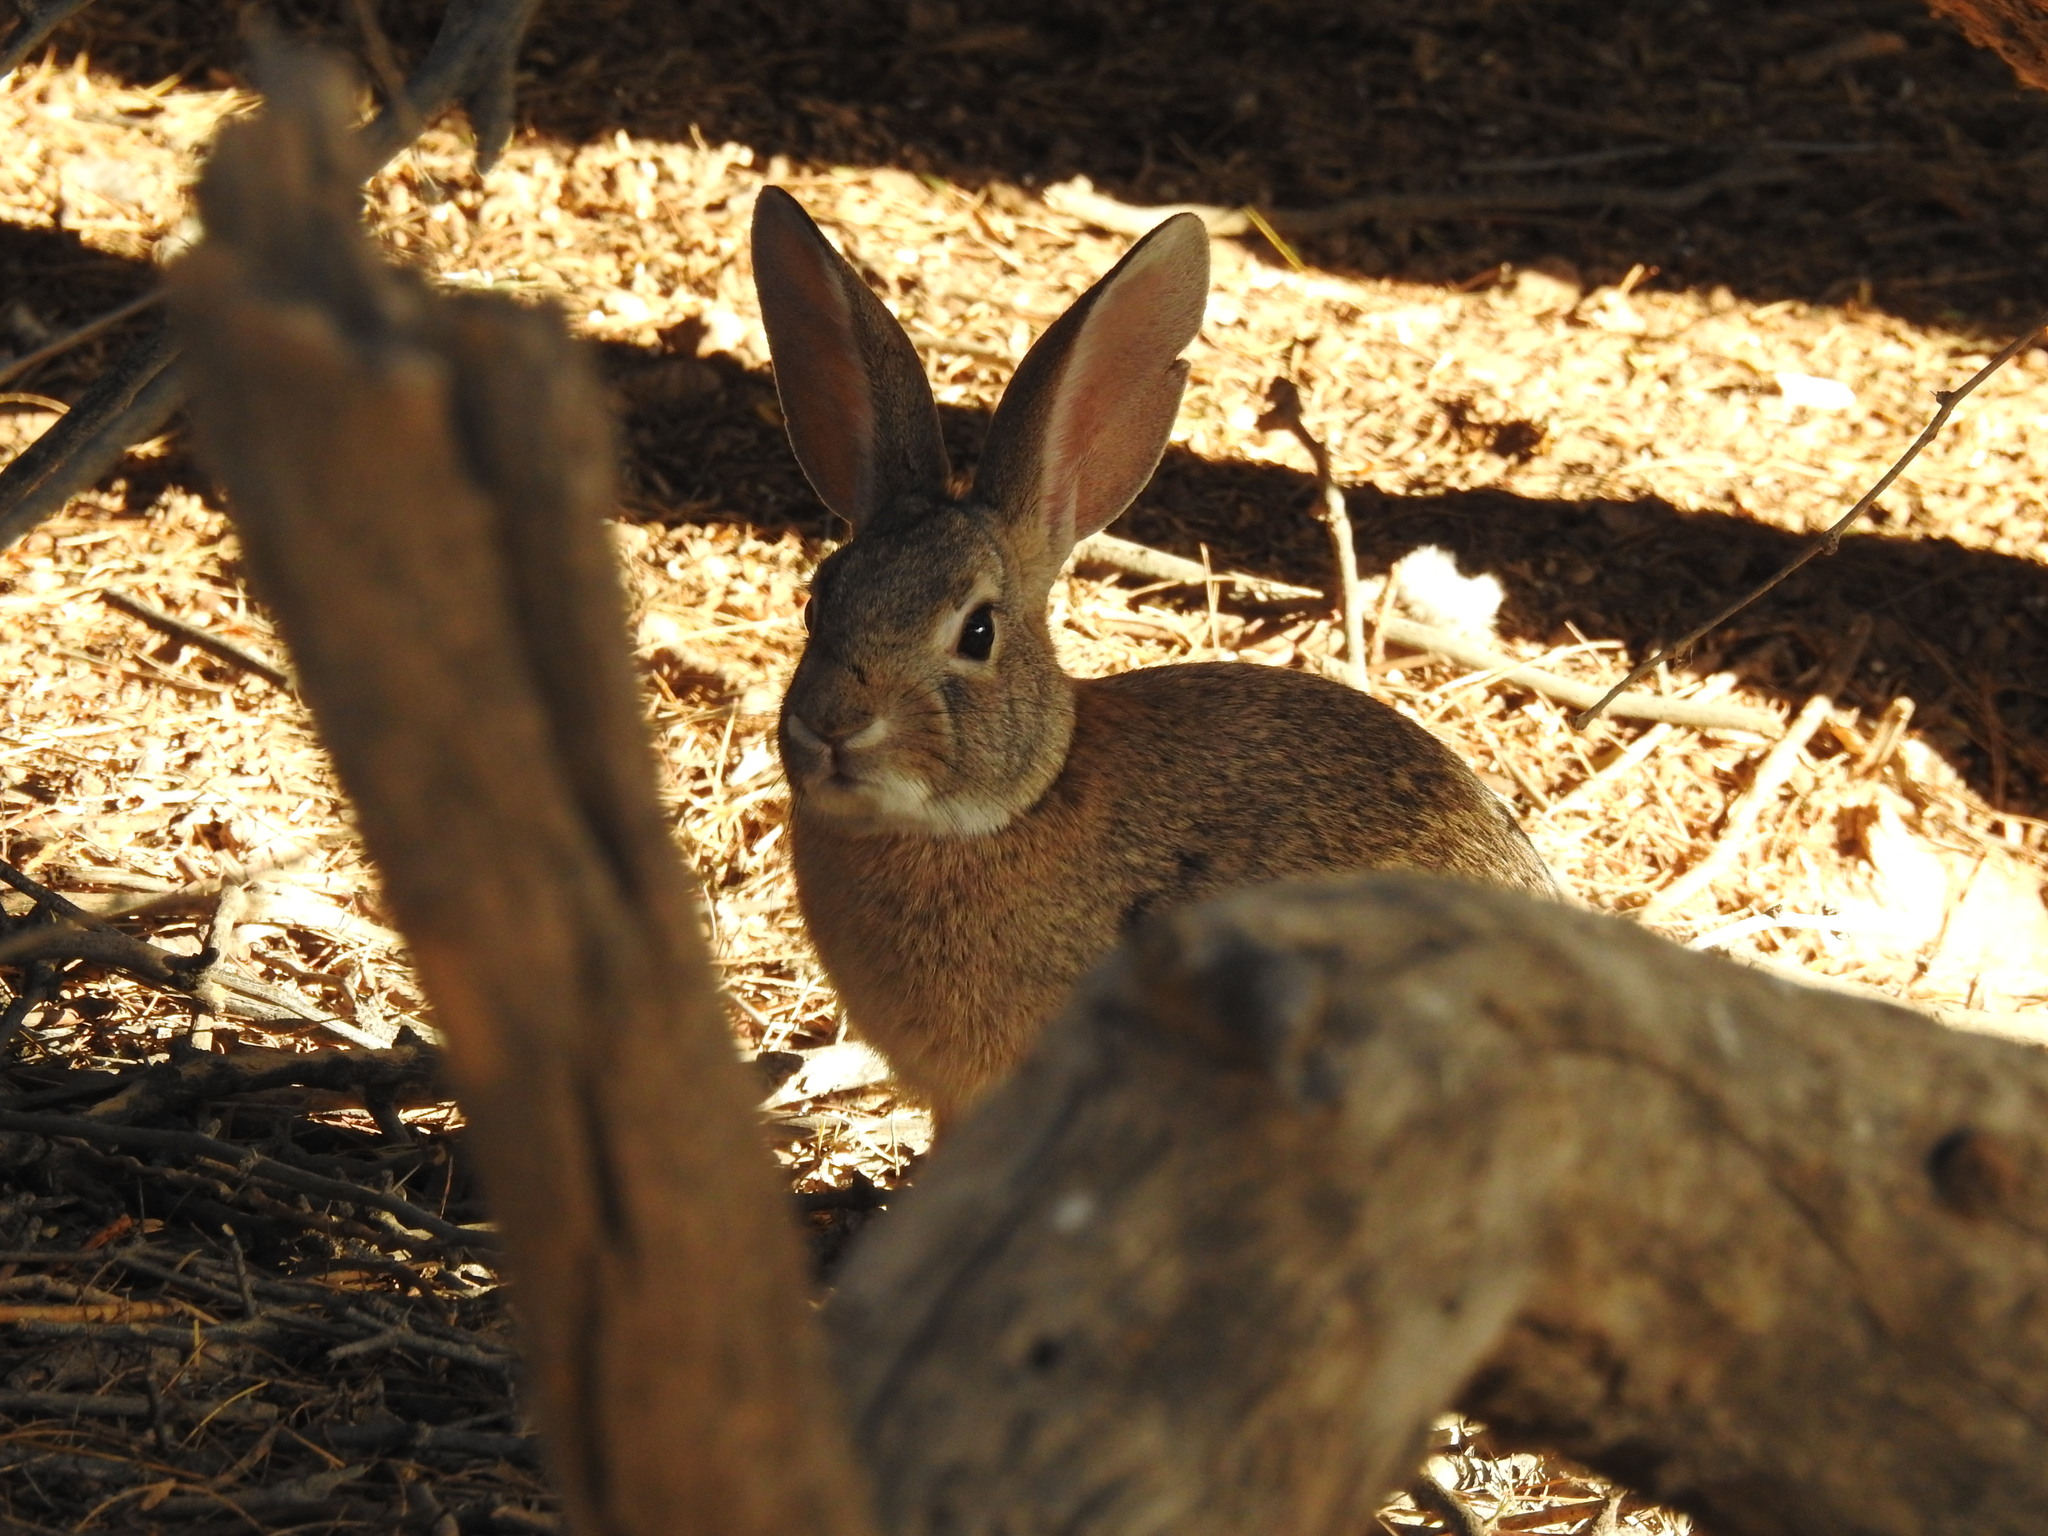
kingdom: Animalia
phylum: Chordata
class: Mammalia
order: Lagomorpha
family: Leporidae
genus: Sylvilagus
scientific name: Sylvilagus audubonii
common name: Desert cottontail
